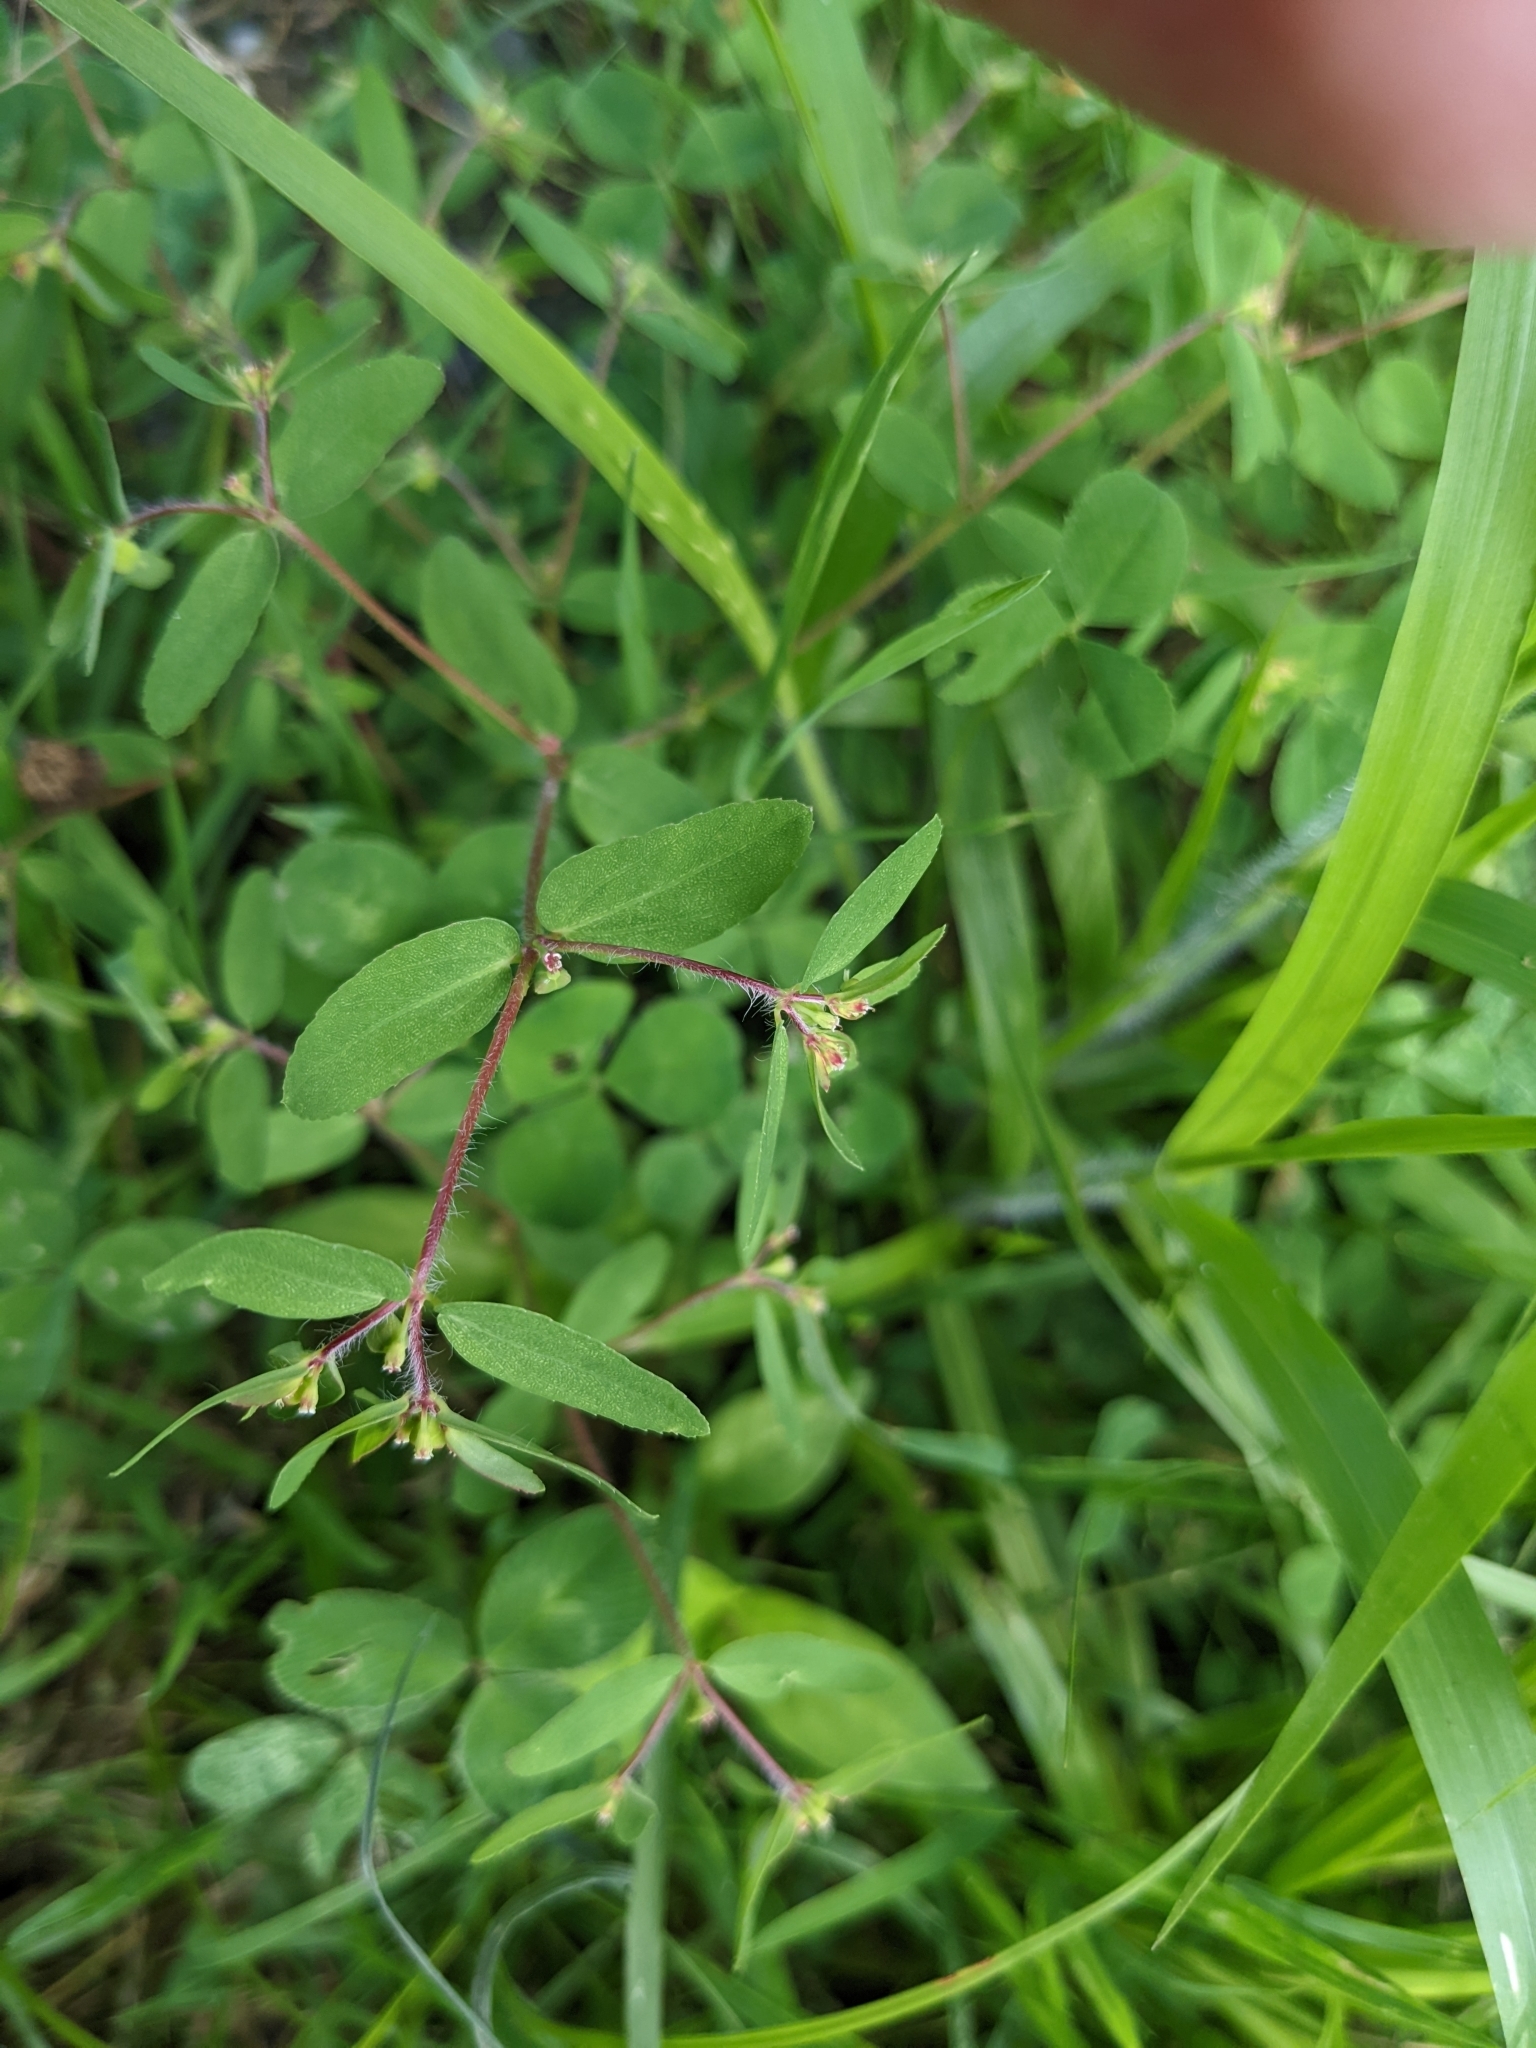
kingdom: Plantae
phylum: Tracheophyta
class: Magnoliopsida
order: Malpighiales
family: Euphorbiaceae
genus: Euphorbia
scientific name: Euphorbia vermiculata
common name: Hairy spurge
